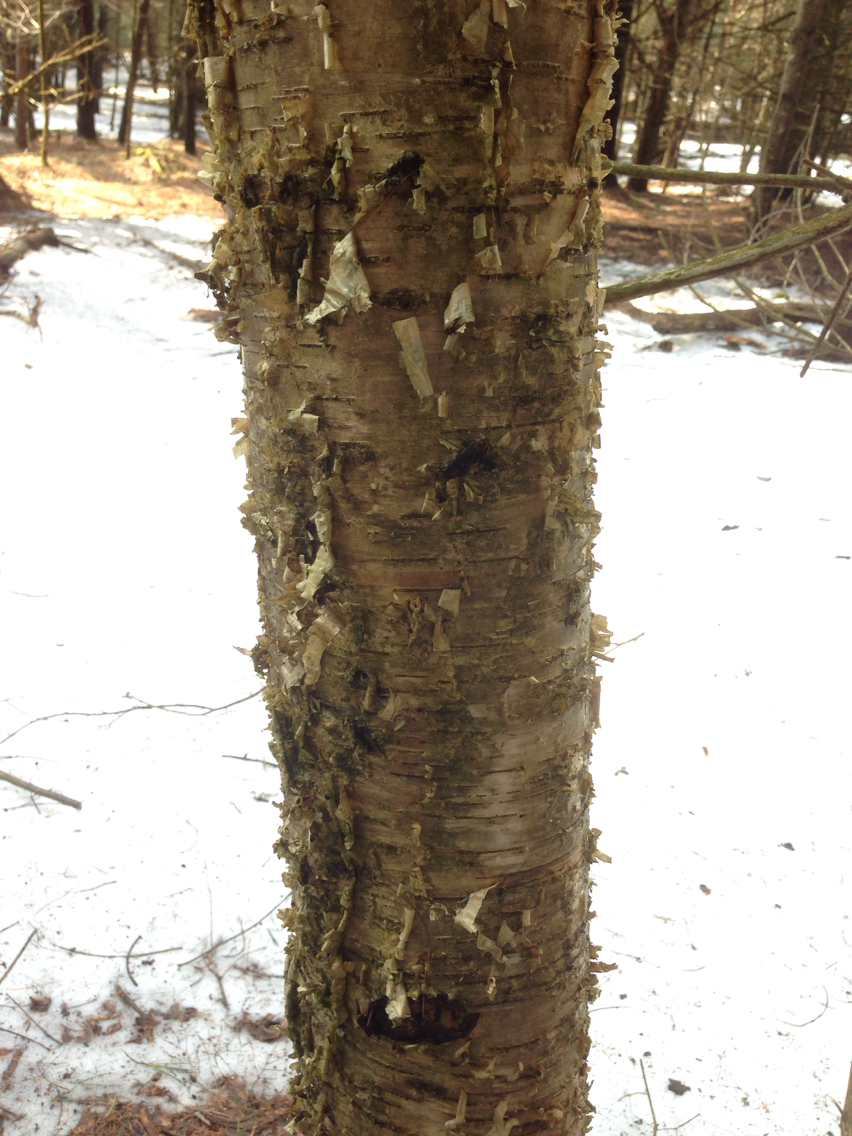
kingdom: Plantae
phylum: Tracheophyta
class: Magnoliopsida
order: Fagales
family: Betulaceae
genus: Betula
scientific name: Betula alleghaniensis
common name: Yellow birch
